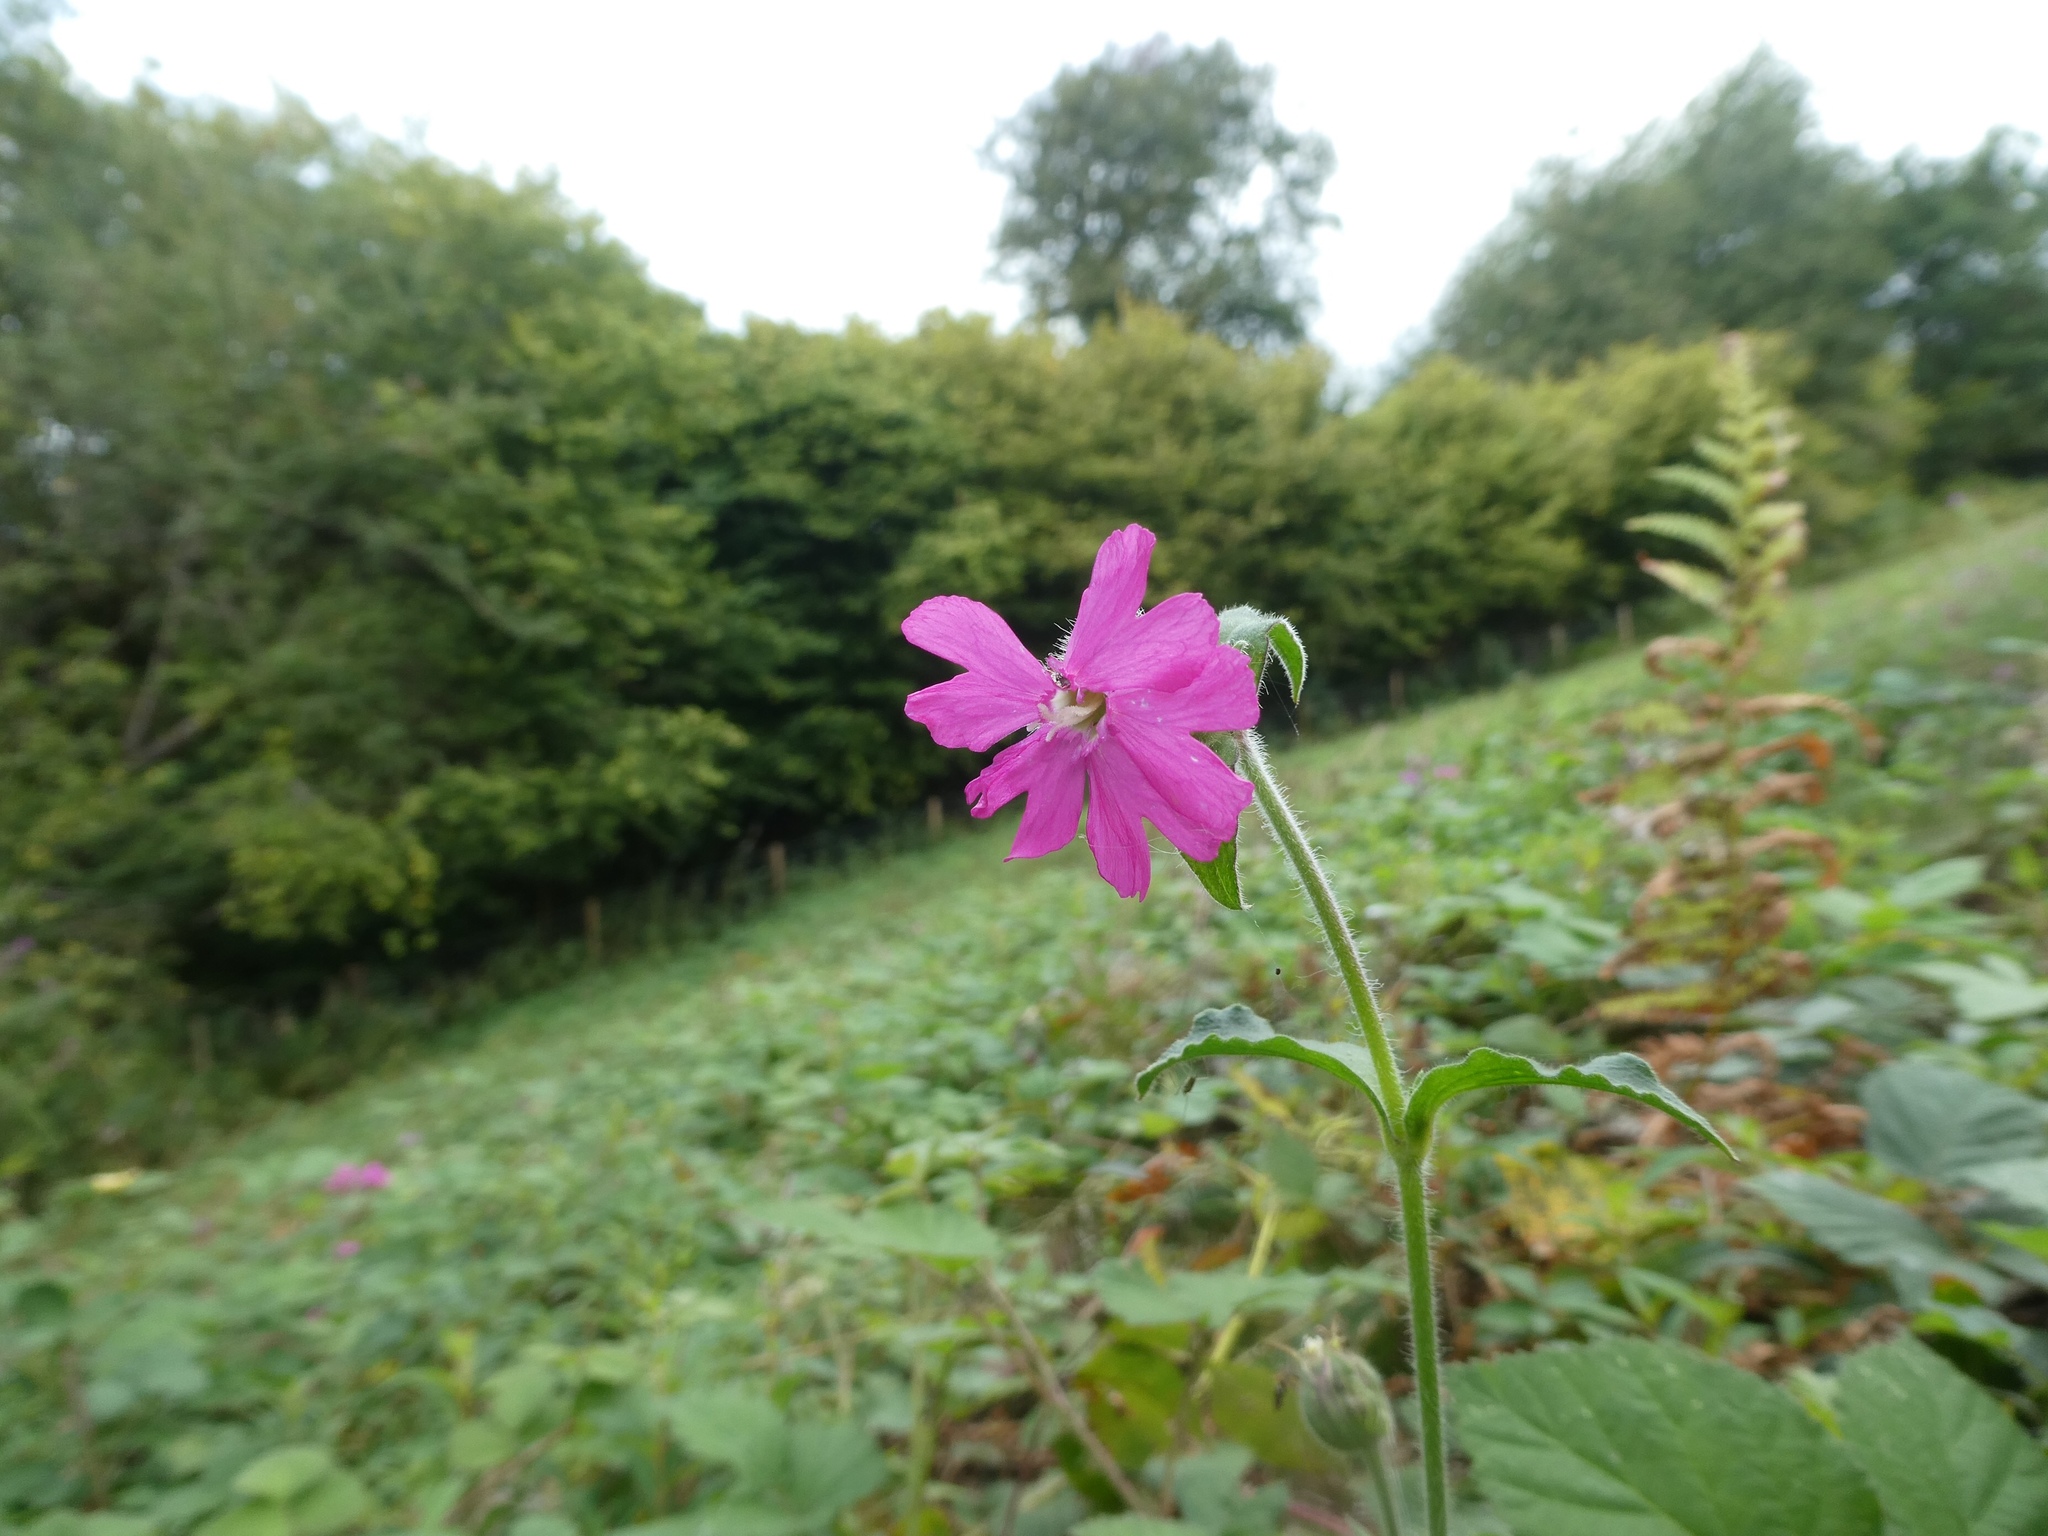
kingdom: Plantae
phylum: Tracheophyta
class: Magnoliopsida
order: Caryophyllales
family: Caryophyllaceae
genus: Silene
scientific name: Silene dioica
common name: Red campion
